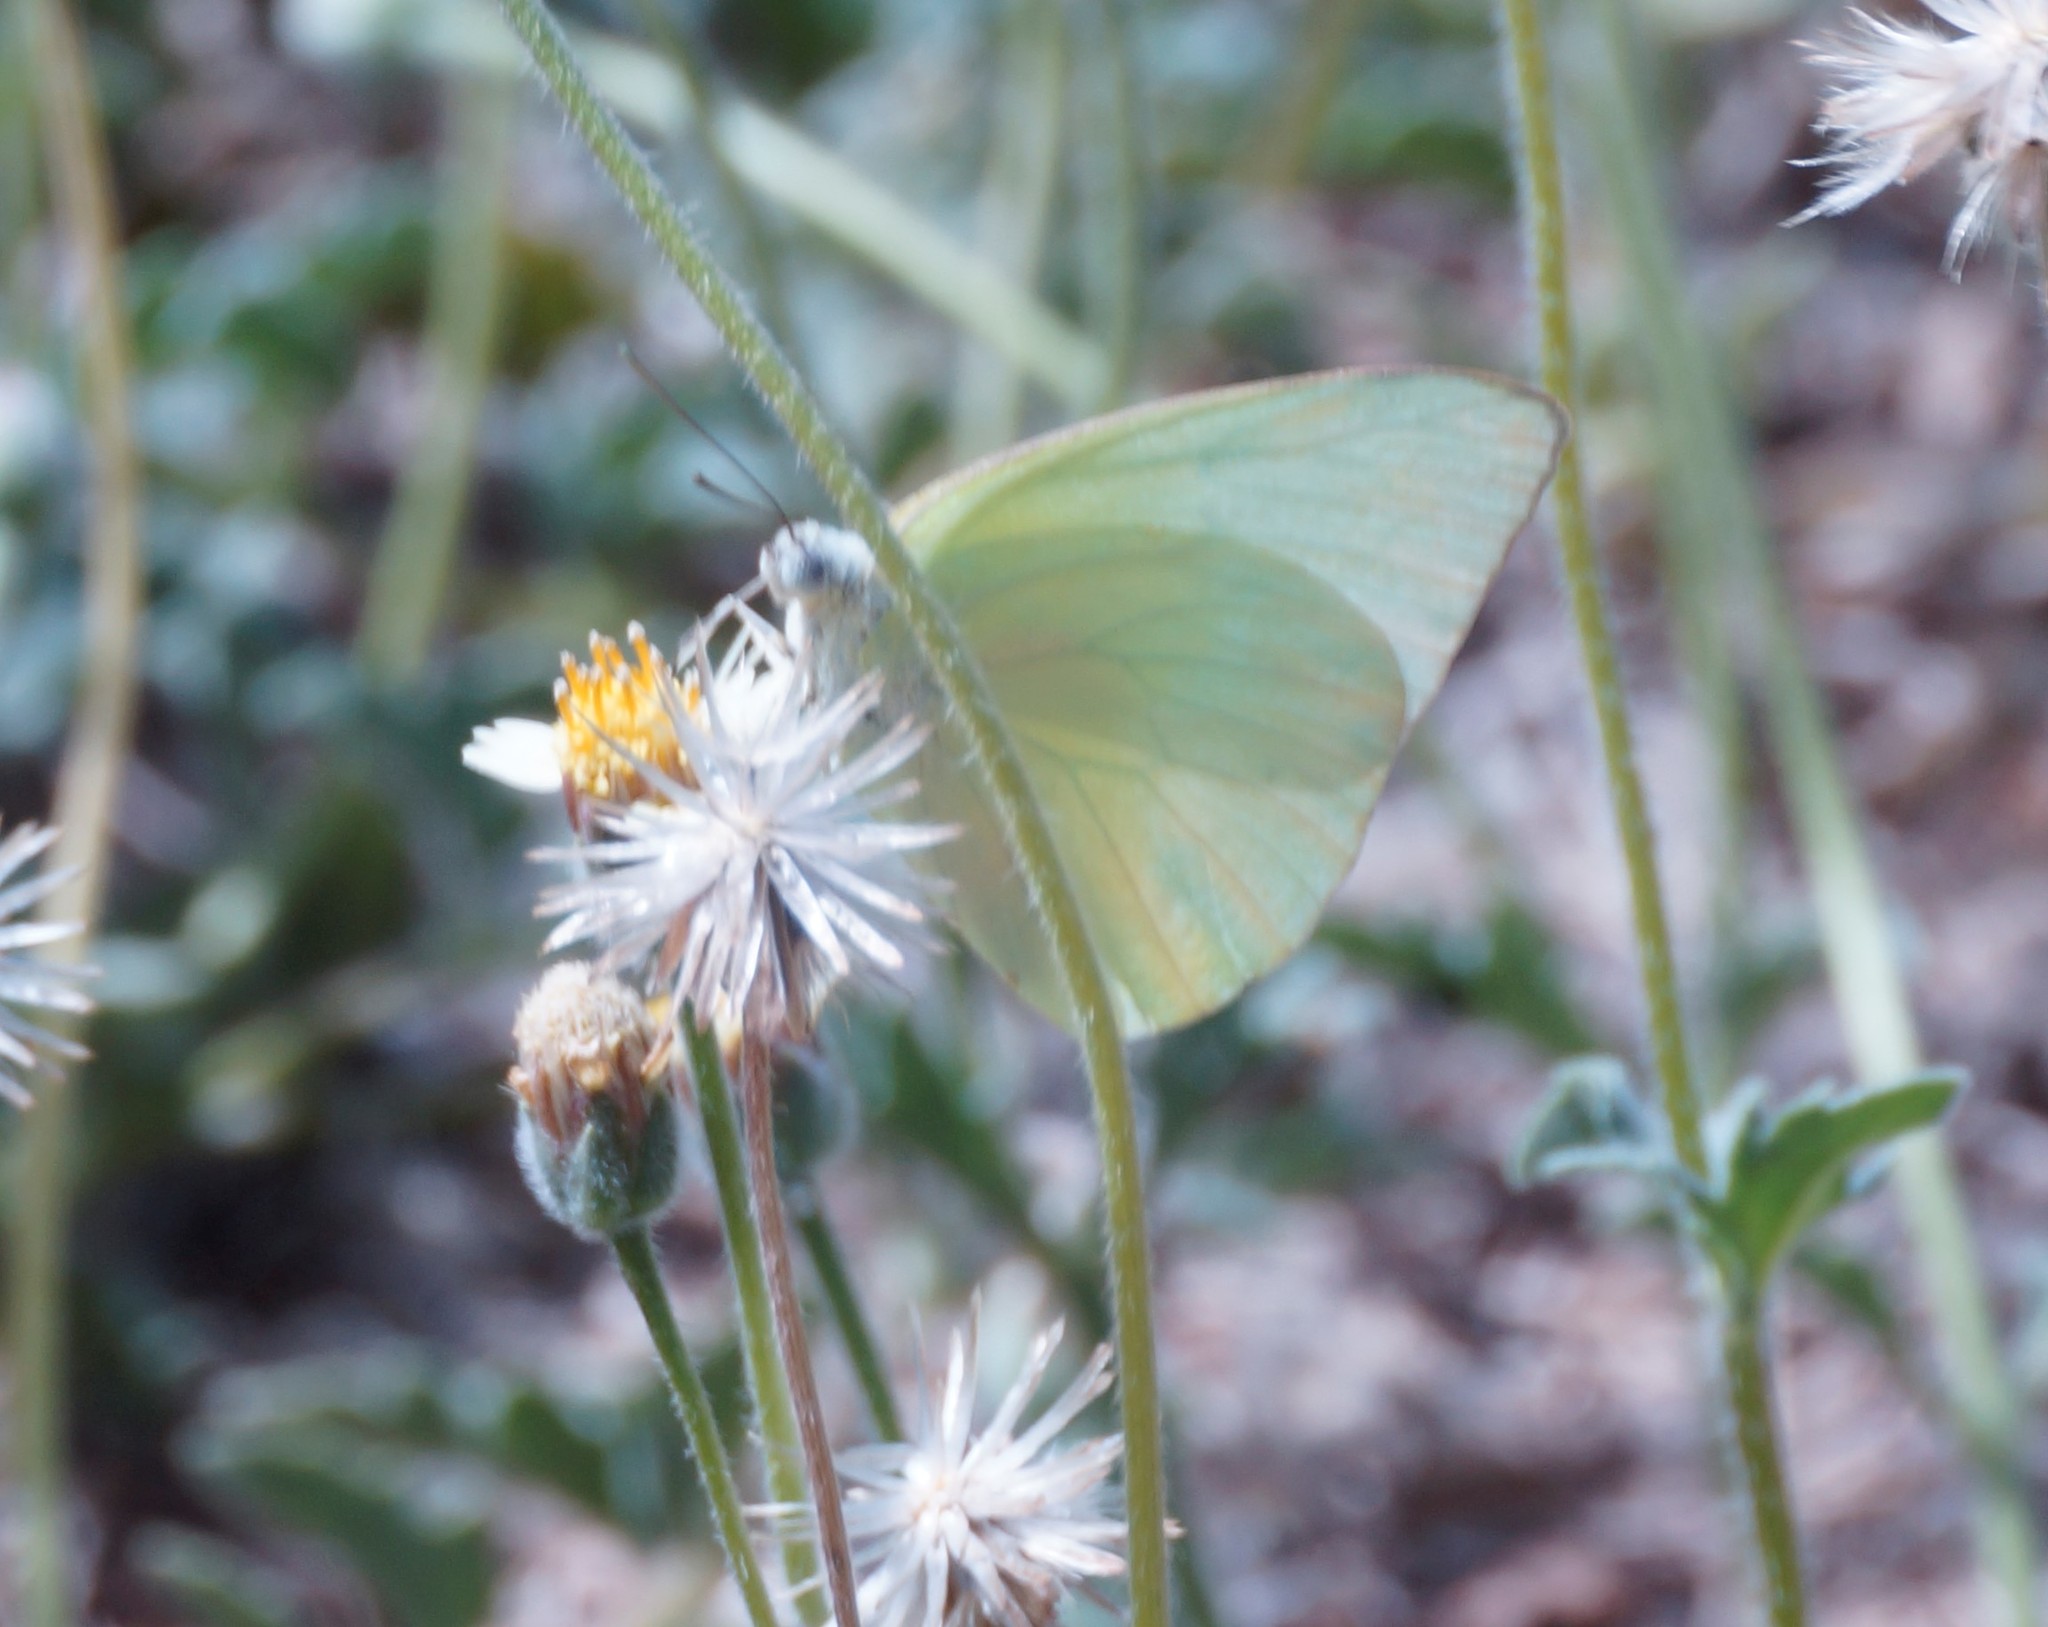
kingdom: Animalia
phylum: Arthropoda
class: Insecta
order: Lepidoptera
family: Pieridae
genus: Catopsilia
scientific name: Catopsilia pomona
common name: Common emigrant
